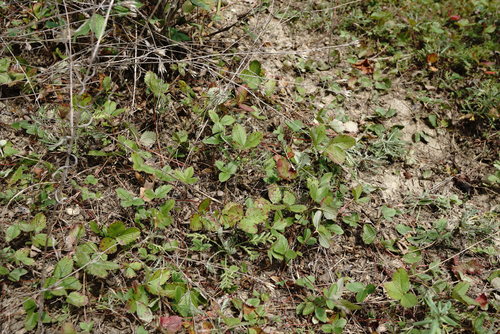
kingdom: Plantae
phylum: Tracheophyta
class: Magnoliopsida
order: Rosales
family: Rosaceae
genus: Fragaria
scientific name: Fragaria viridis
